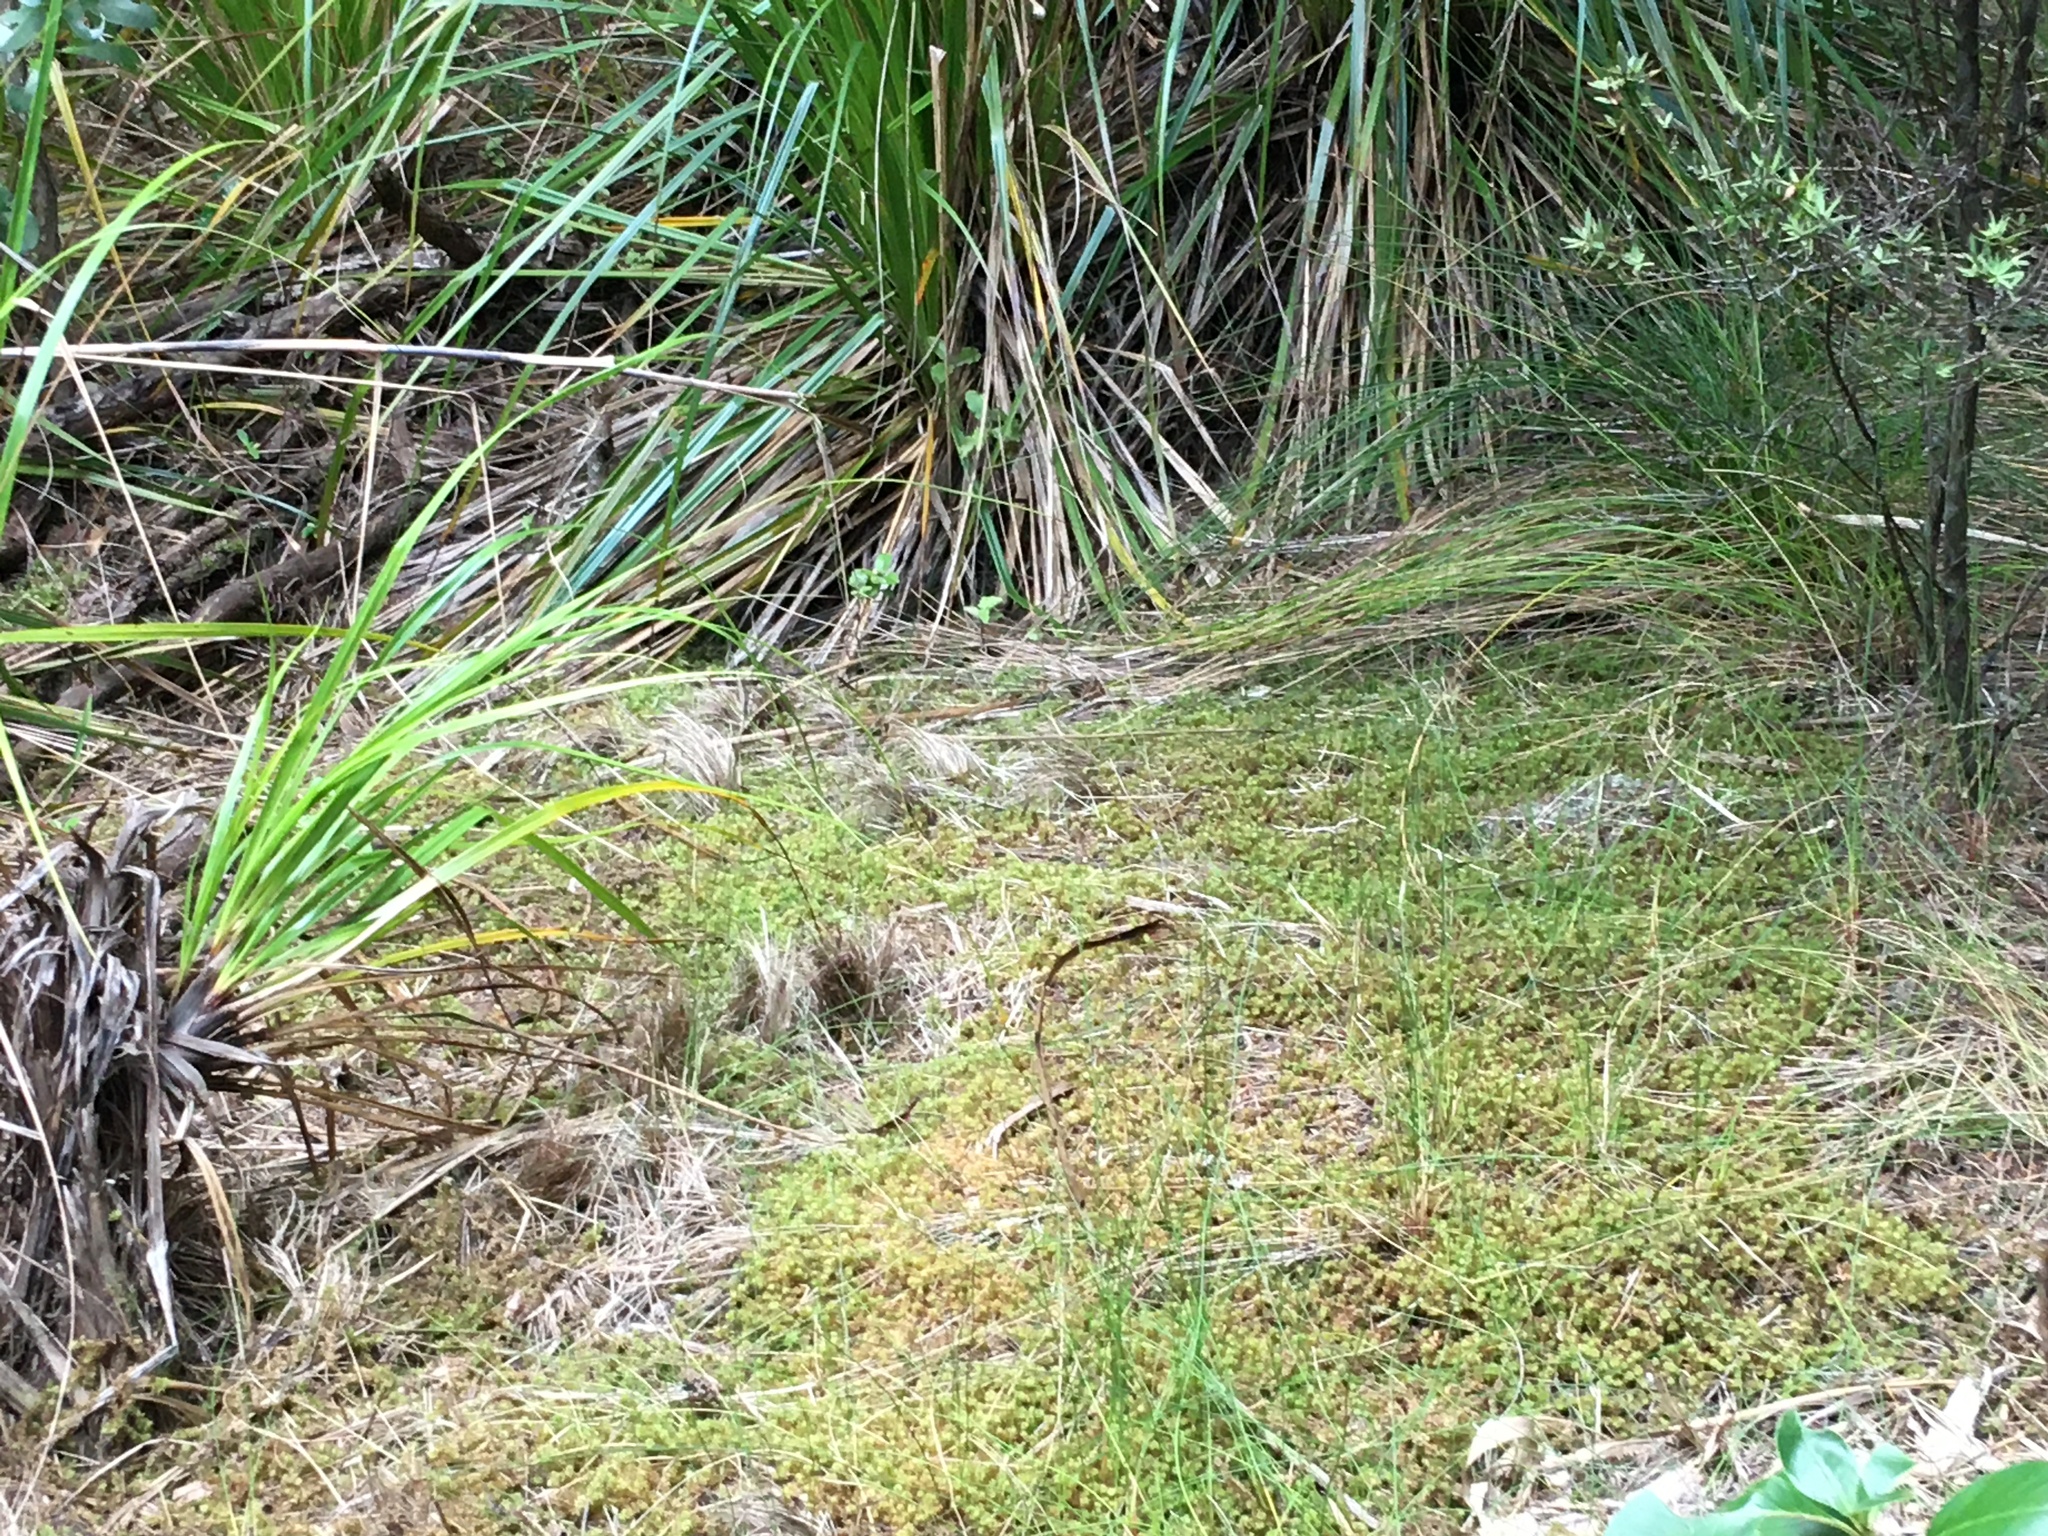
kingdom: Plantae
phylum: Bryophyta
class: Bryopsida
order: Ptychomniales
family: Ptychomniaceae
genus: Ptychomnion
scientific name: Ptychomnion aciculare
